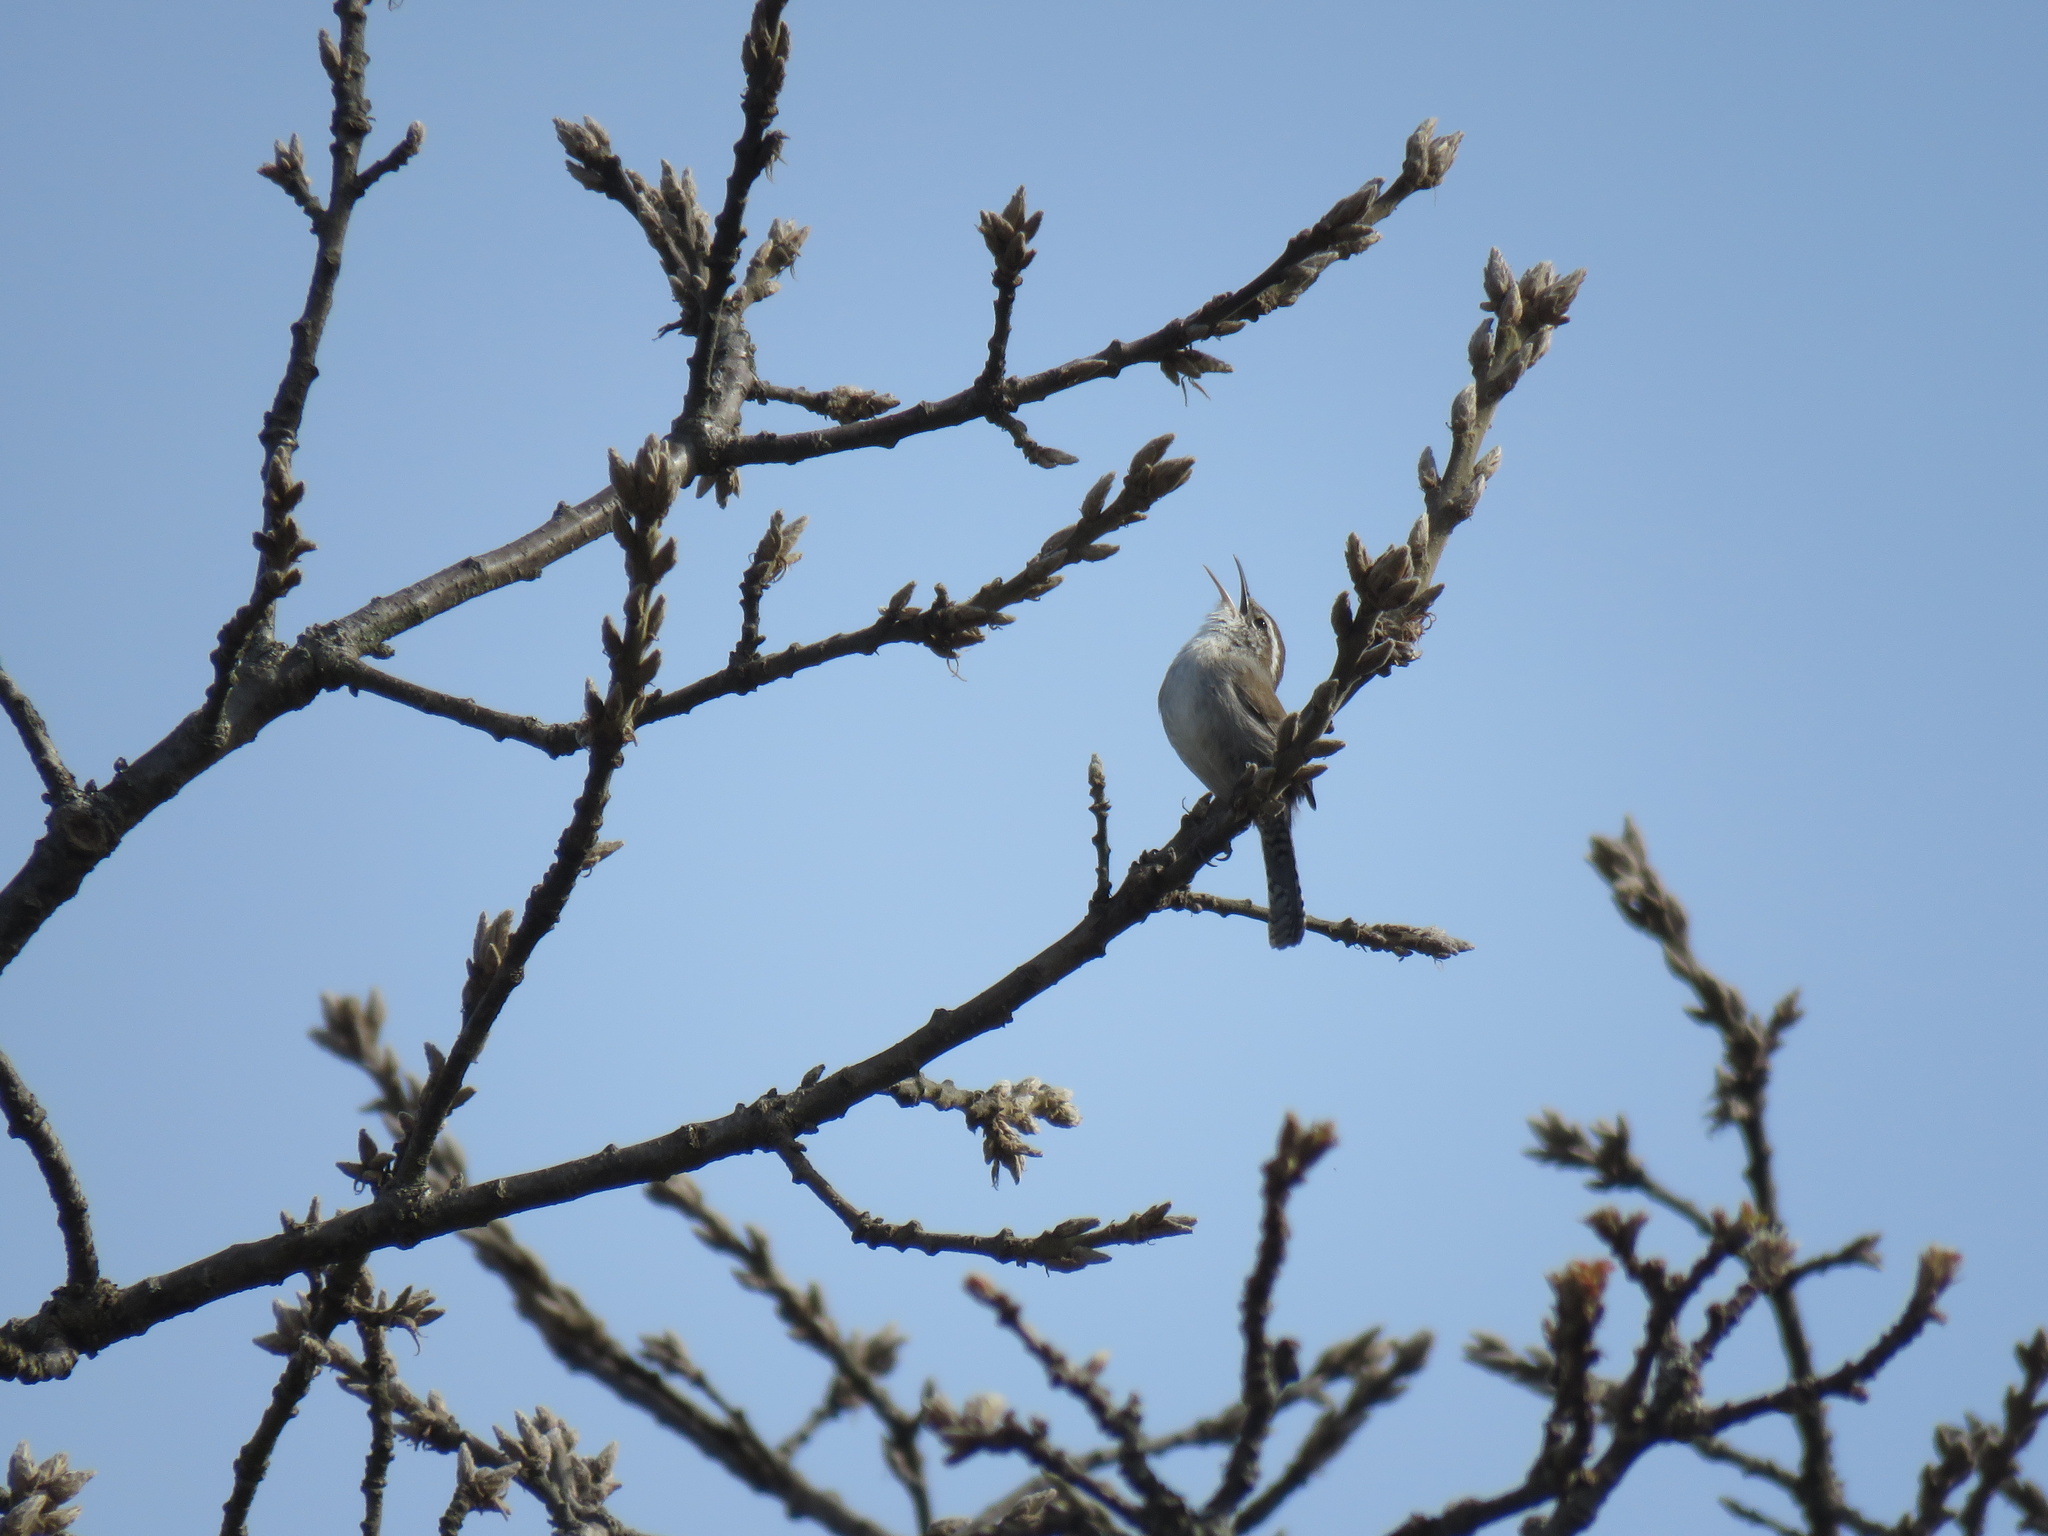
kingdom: Animalia
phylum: Chordata
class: Aves
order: Passeriformes
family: Troglodytidae
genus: Thryomanes
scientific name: Thryomanes bewickii
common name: Bewick's wren
